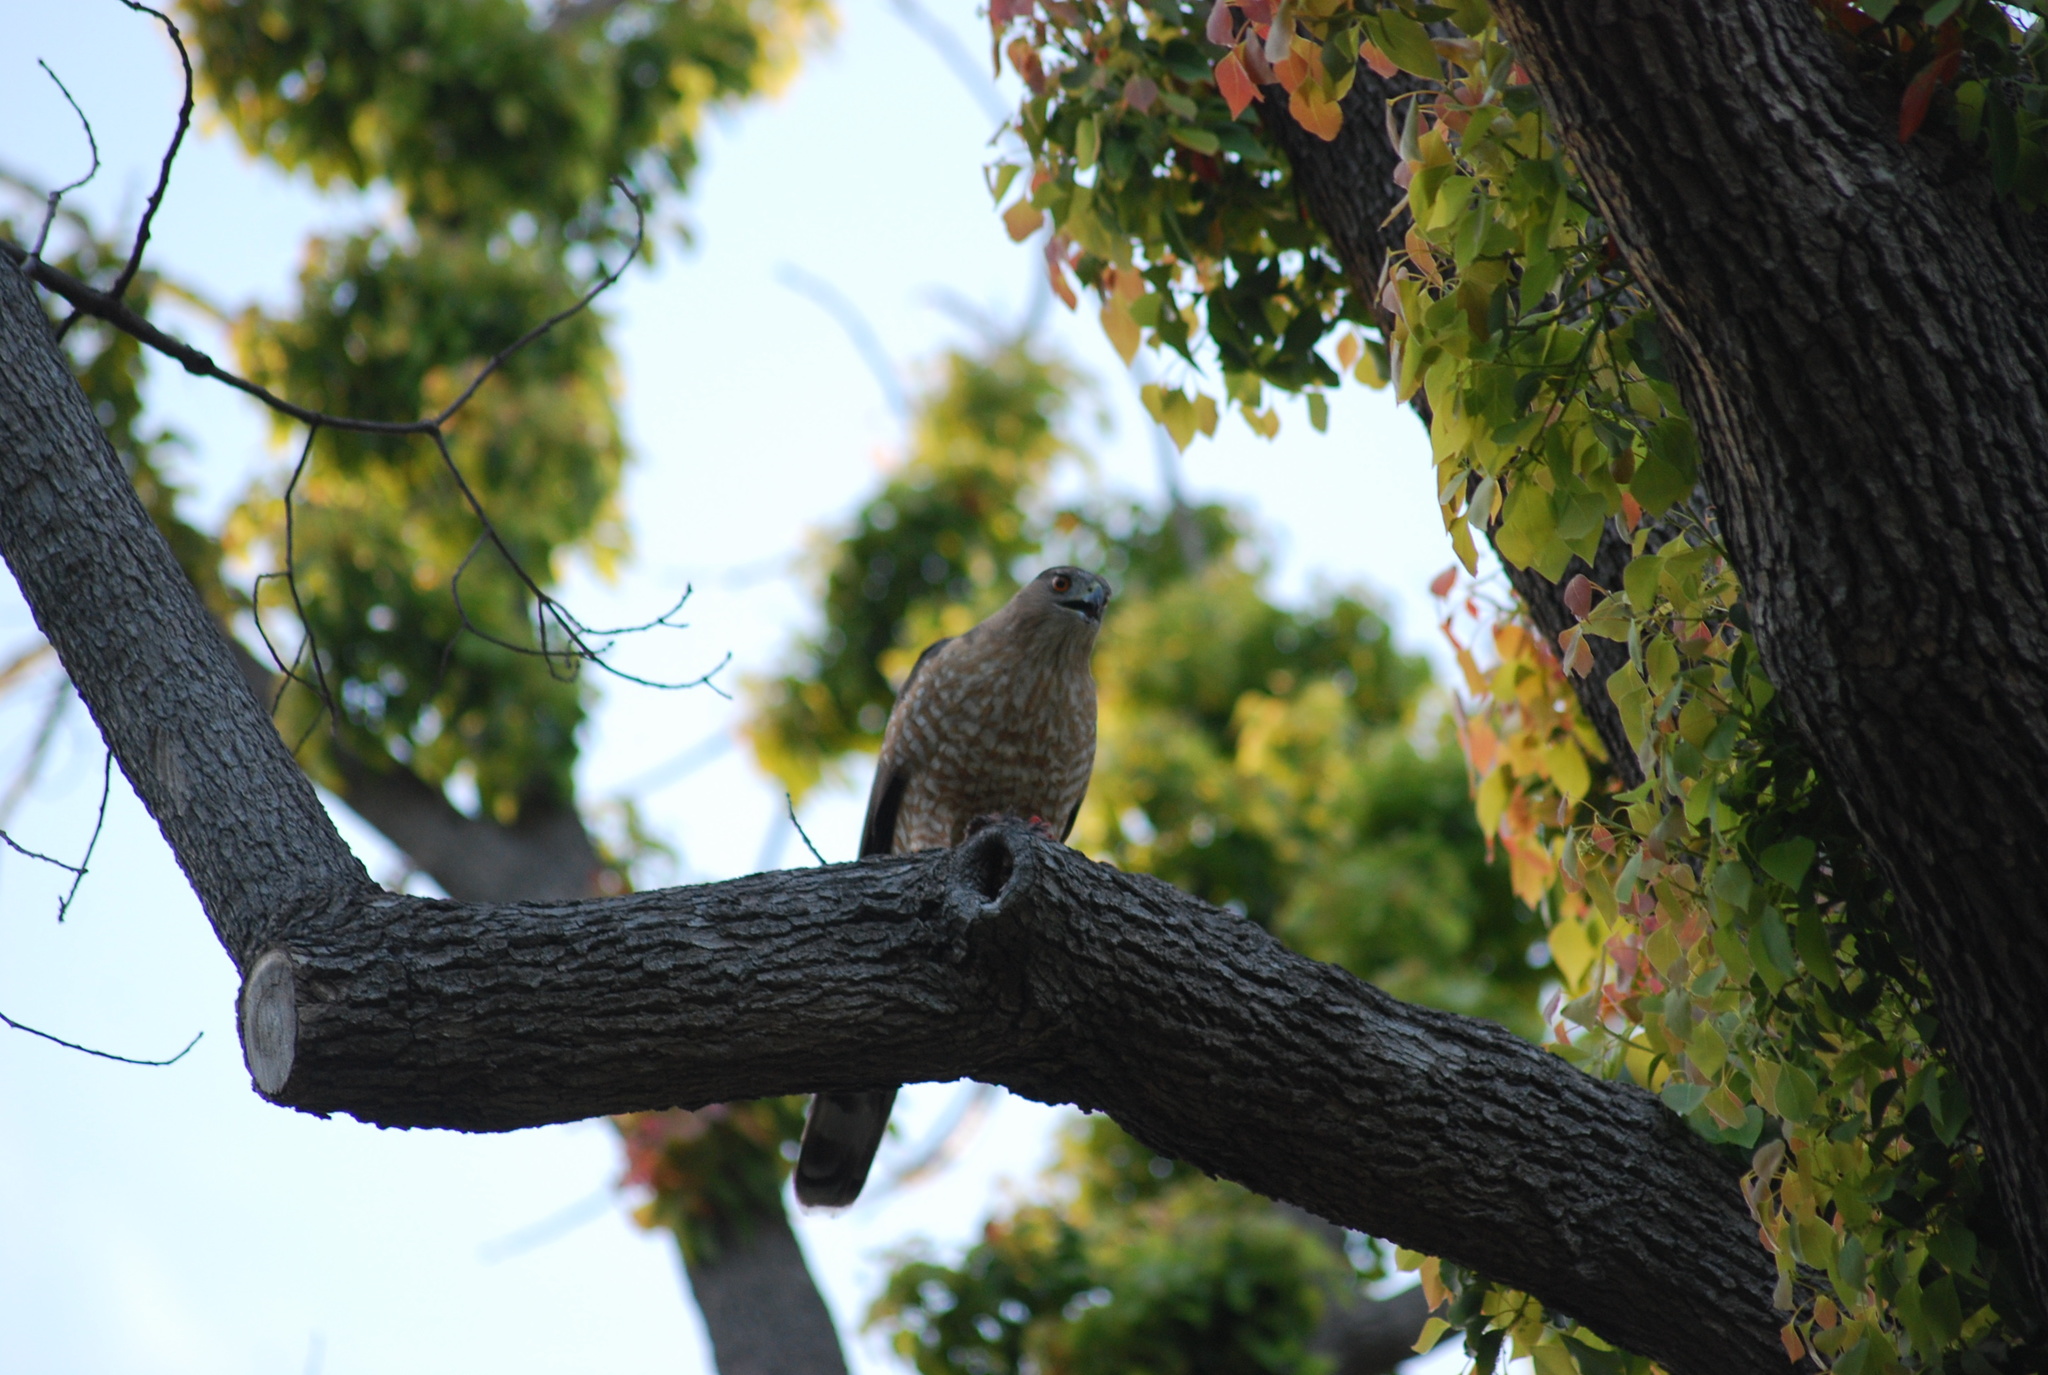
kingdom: Animalia
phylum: Chordata
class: Aves
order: Accipitriformes
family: Accipitridae
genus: Accipiter
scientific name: Accipiter cooperii
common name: Cooper's hawk
